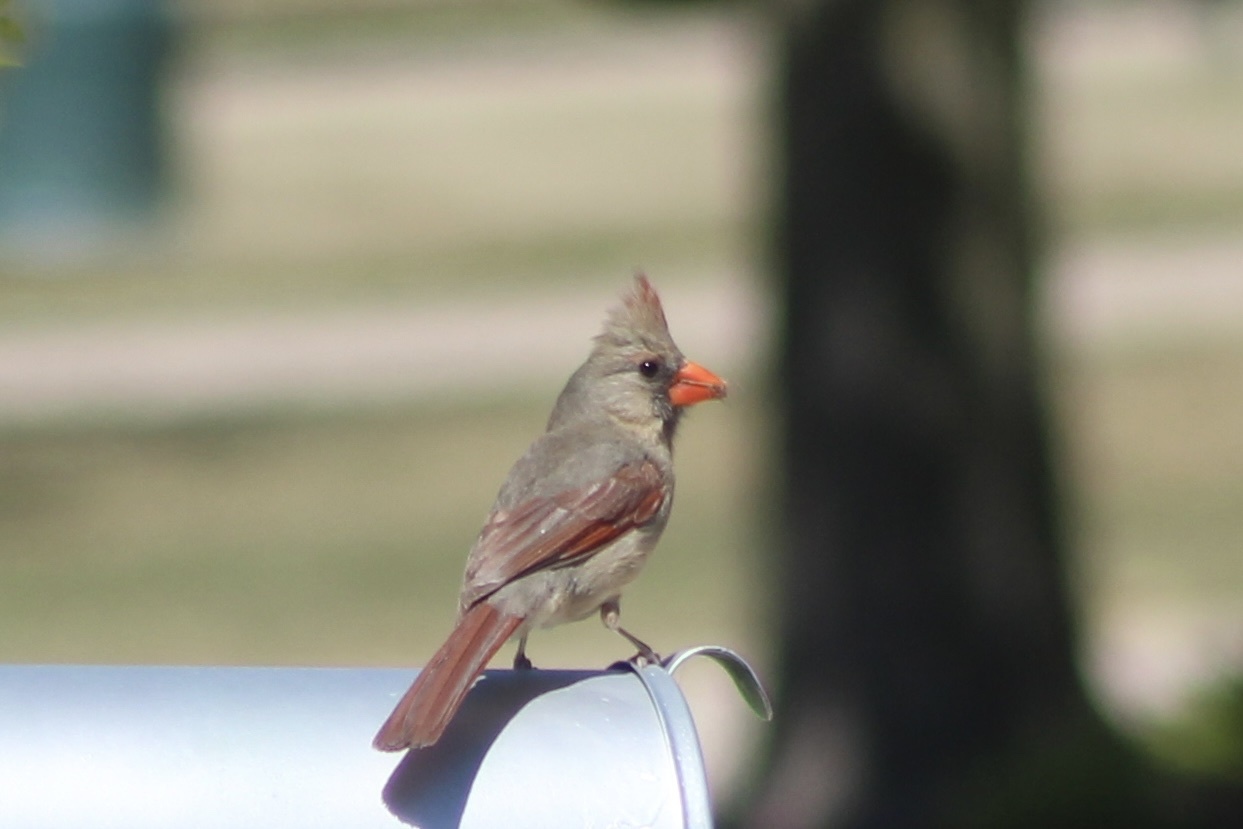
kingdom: Animalia
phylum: Chordata
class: Aves
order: Passeriformes
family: Cardinalidae
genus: Cardinalis
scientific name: Cardinalis cardinalis
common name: Northern cardinal
